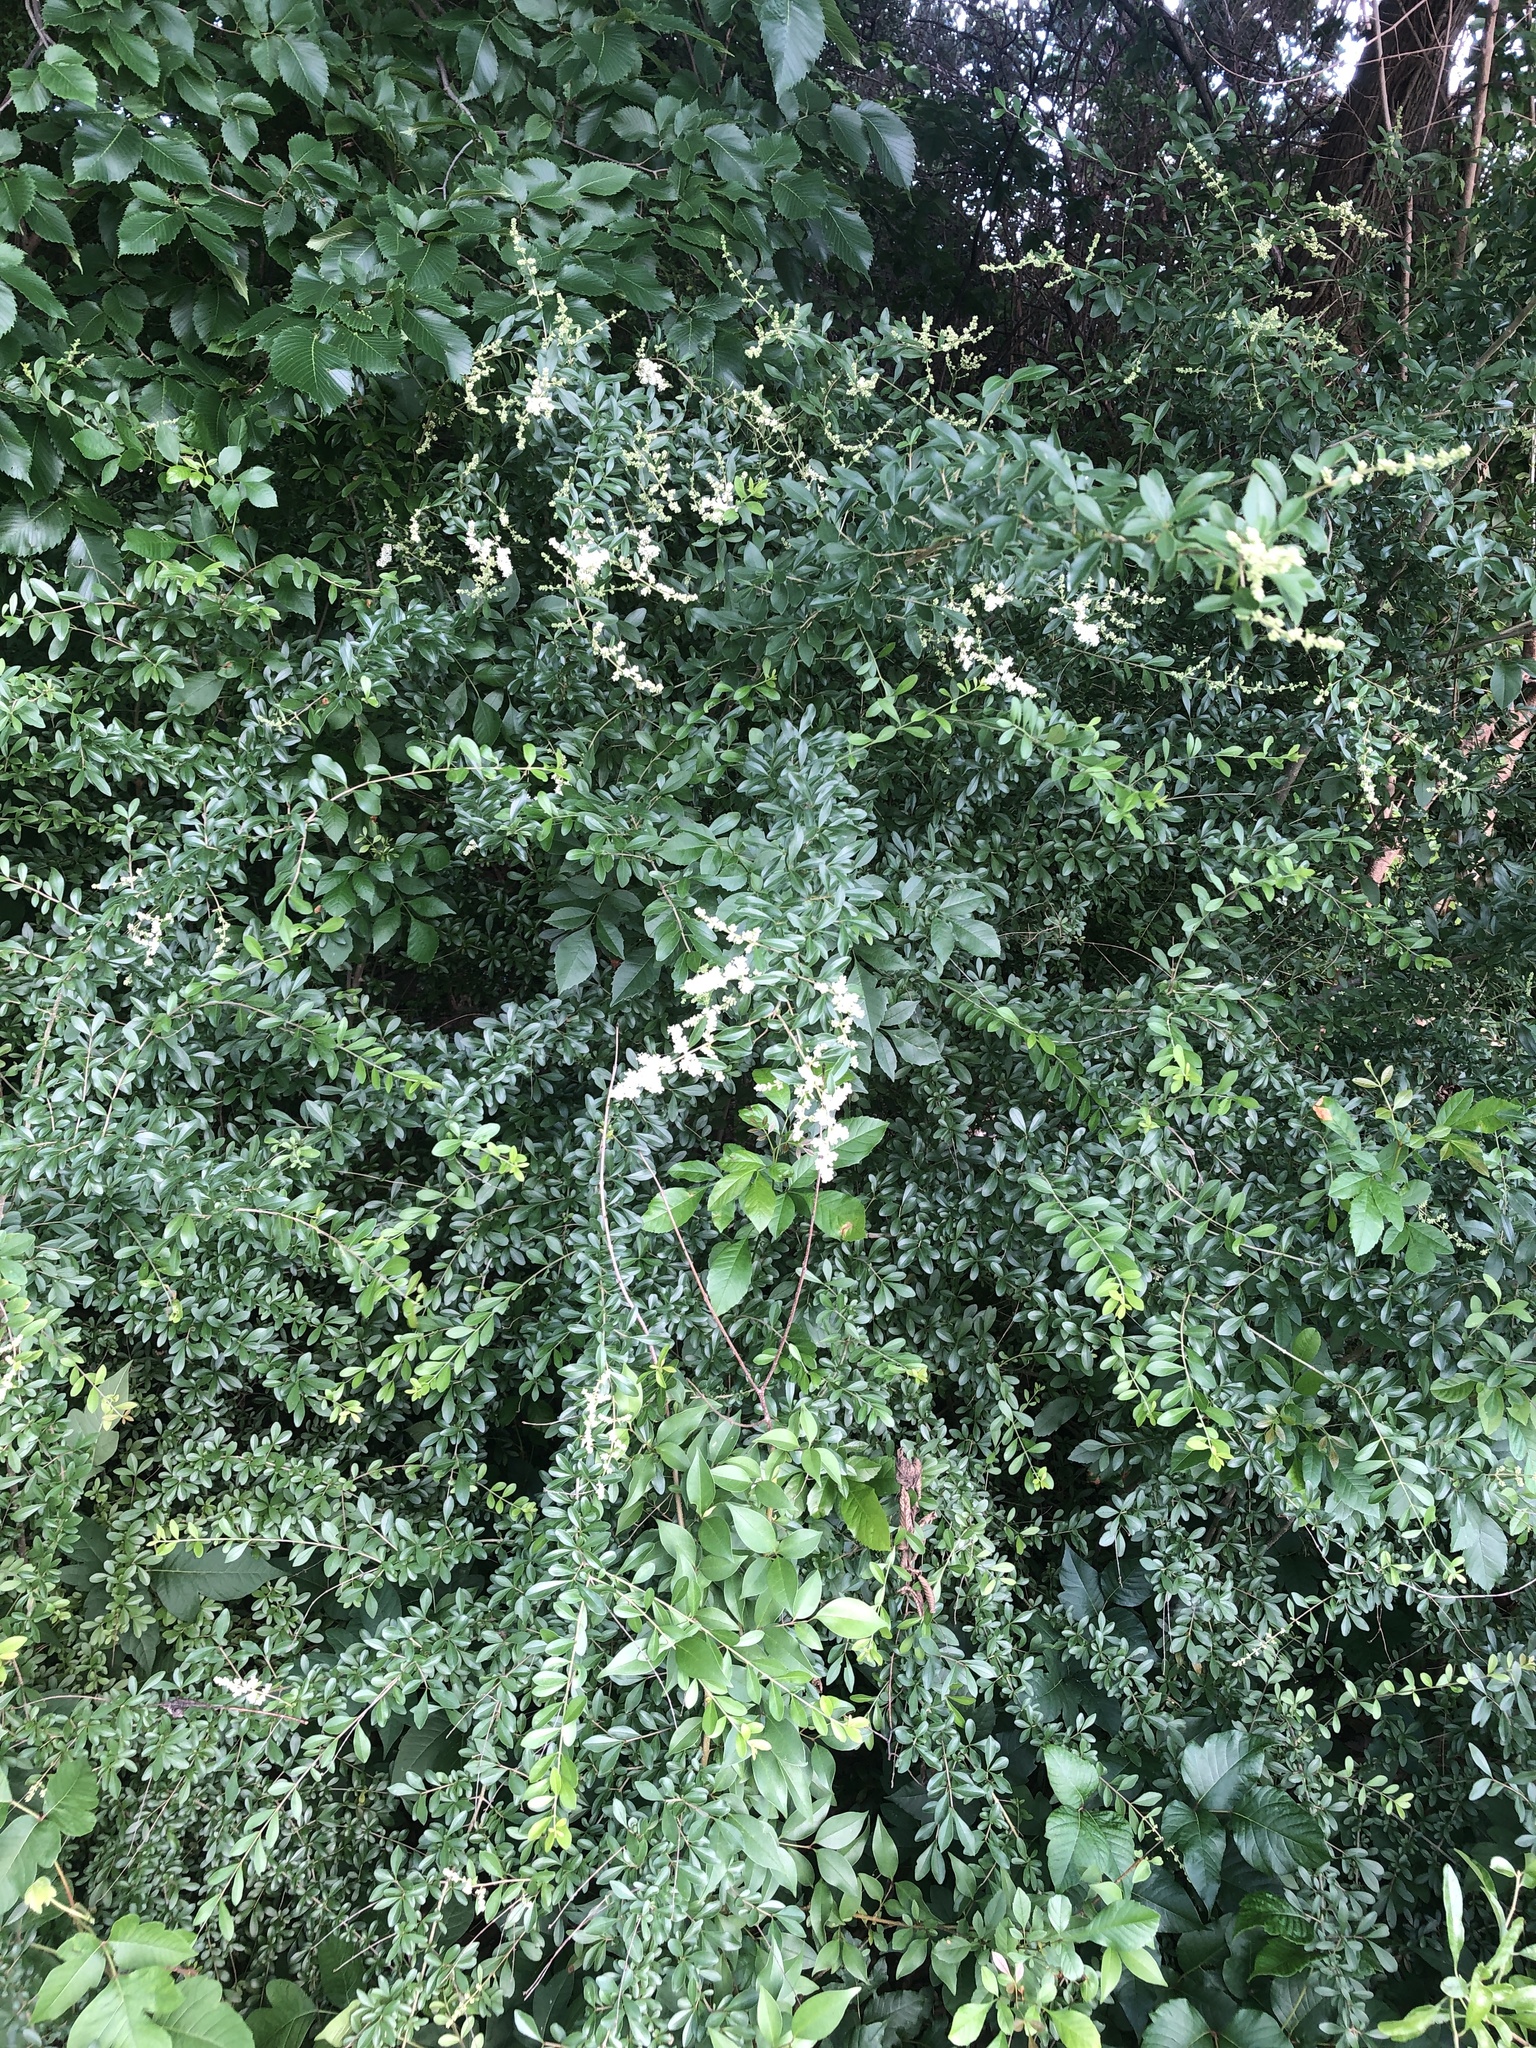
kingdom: Plantae
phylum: Tracheophyta
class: Magnoliopsida
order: Lamiales
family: Oleaceae
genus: Ligustrum
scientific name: Ligustrum quihoui
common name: Waxyleaf privet
